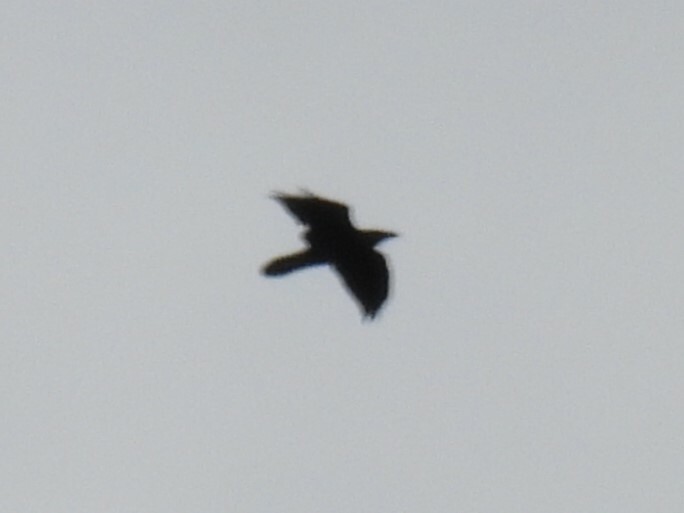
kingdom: Animalia
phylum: Chordata
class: Aves
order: Passeriformes
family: Corvidae
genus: Corvus
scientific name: Corvus corax
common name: Common raven
